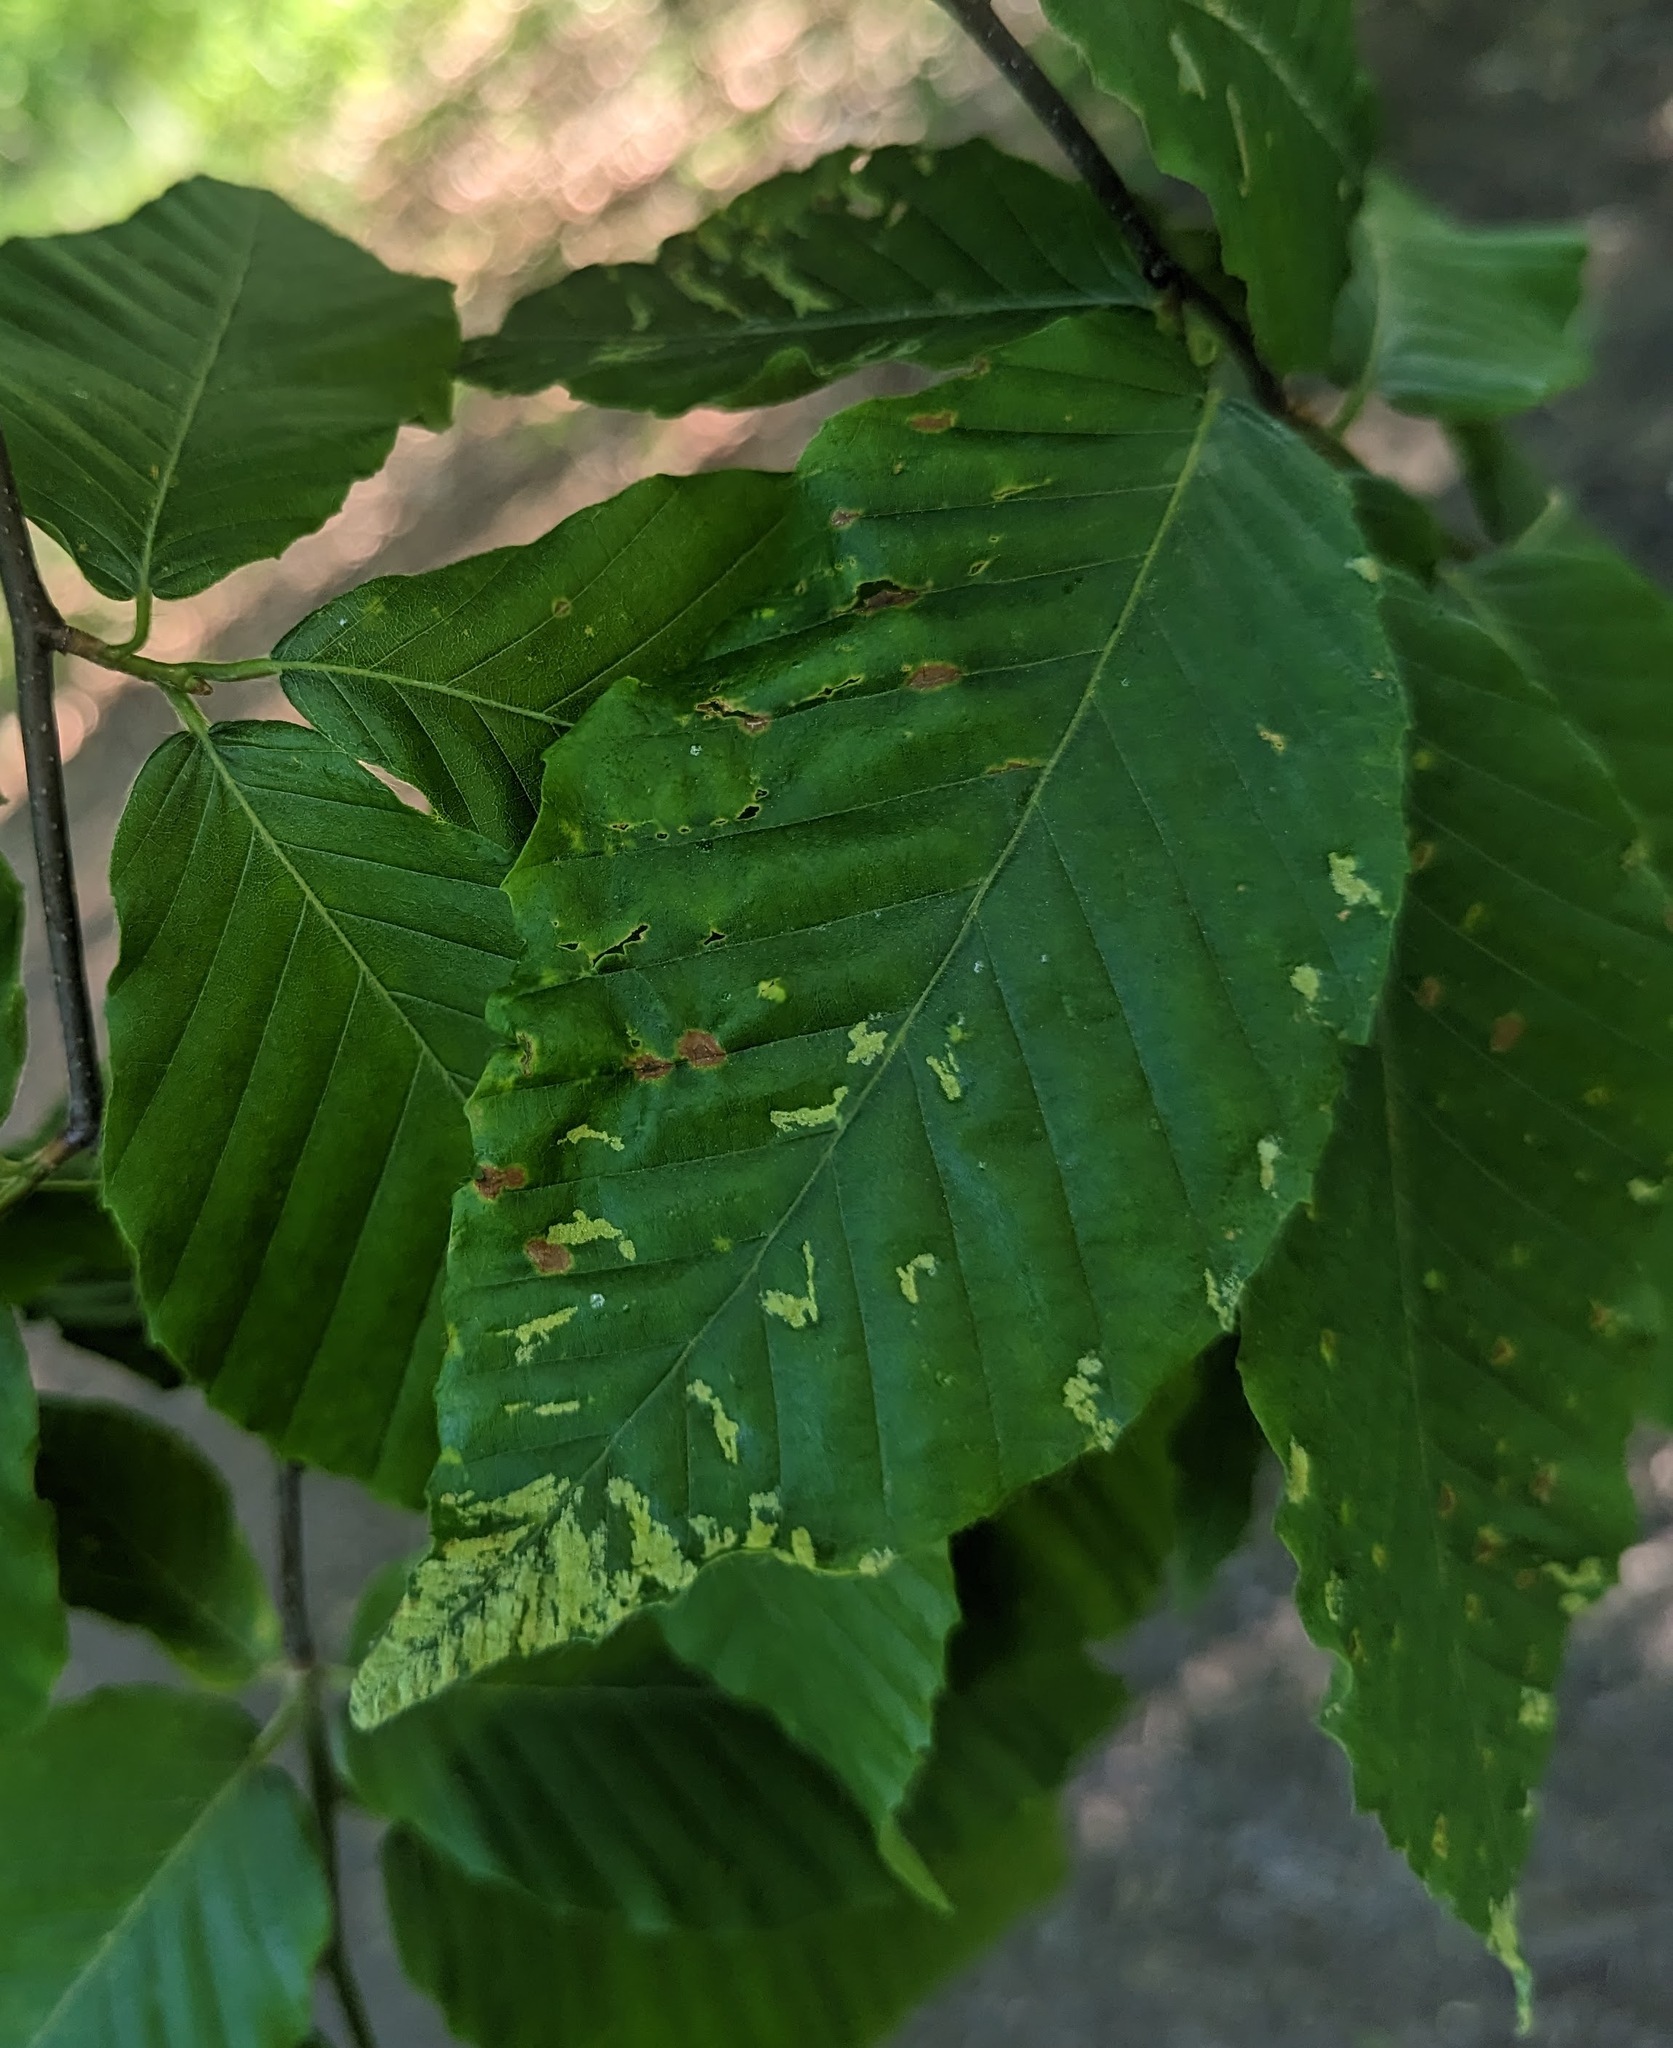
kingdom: Animalia
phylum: Arthropoda
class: Arachnida
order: Trombidiformes
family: Eriophyidae
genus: Acalitus
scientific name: Acalitus
